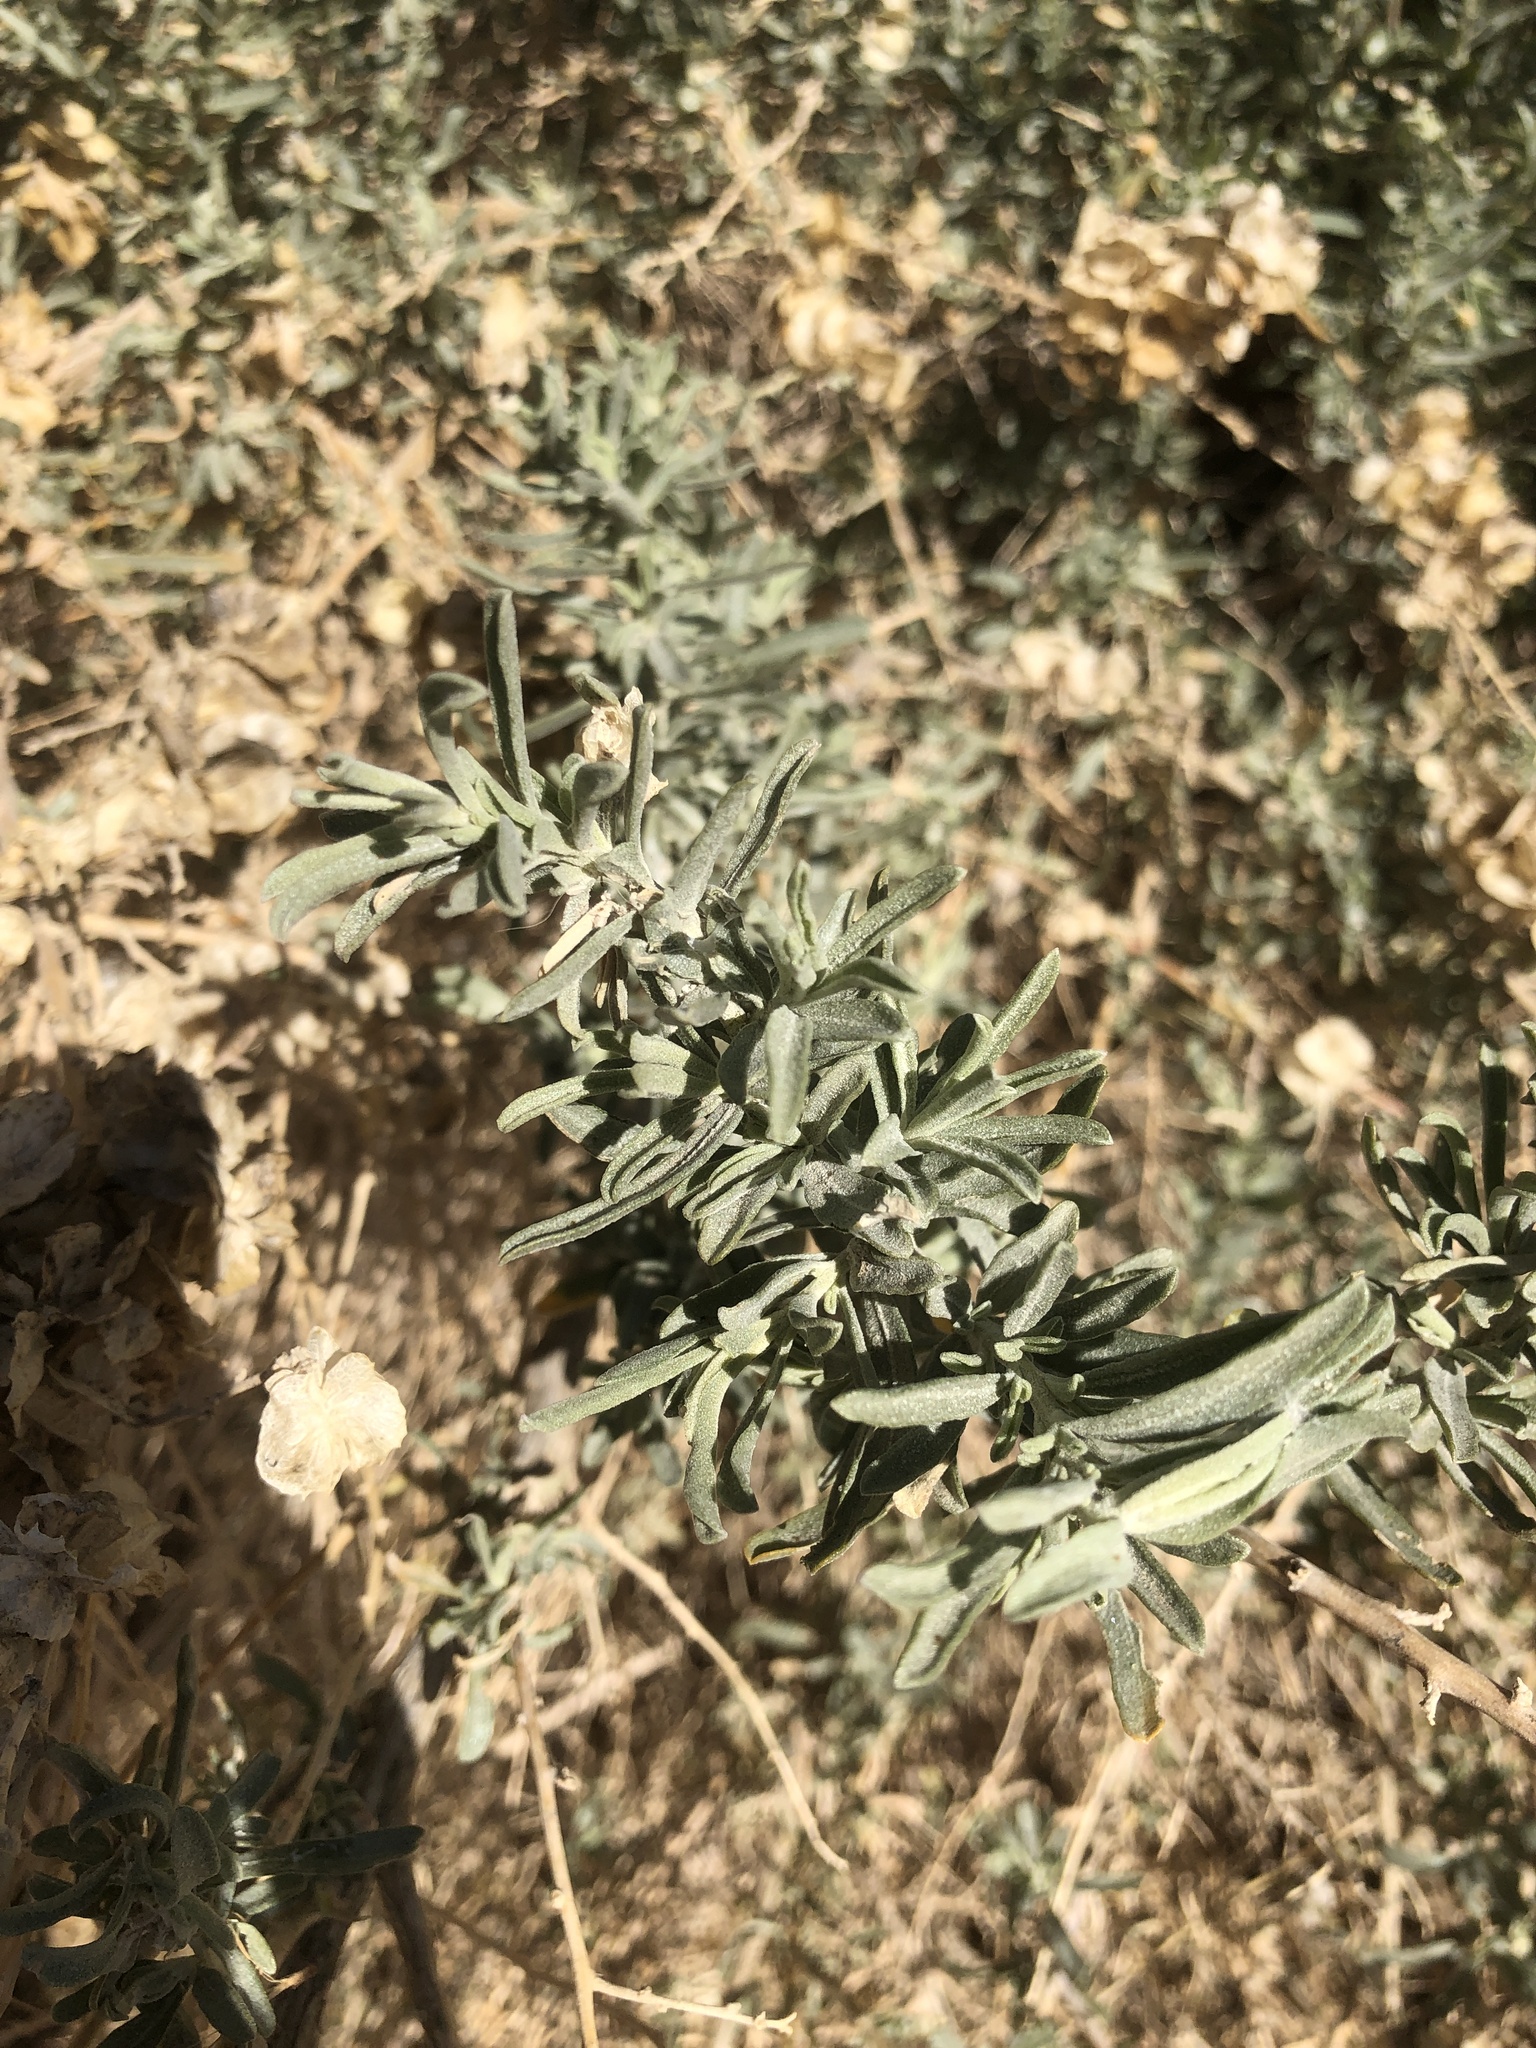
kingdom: Plantae
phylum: Tracheophyta
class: Magnoliopsida
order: Caryophyllales
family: Amaranthaceae
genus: Atriplex
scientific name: Atriplex canescens
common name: Four-wing saltbush
